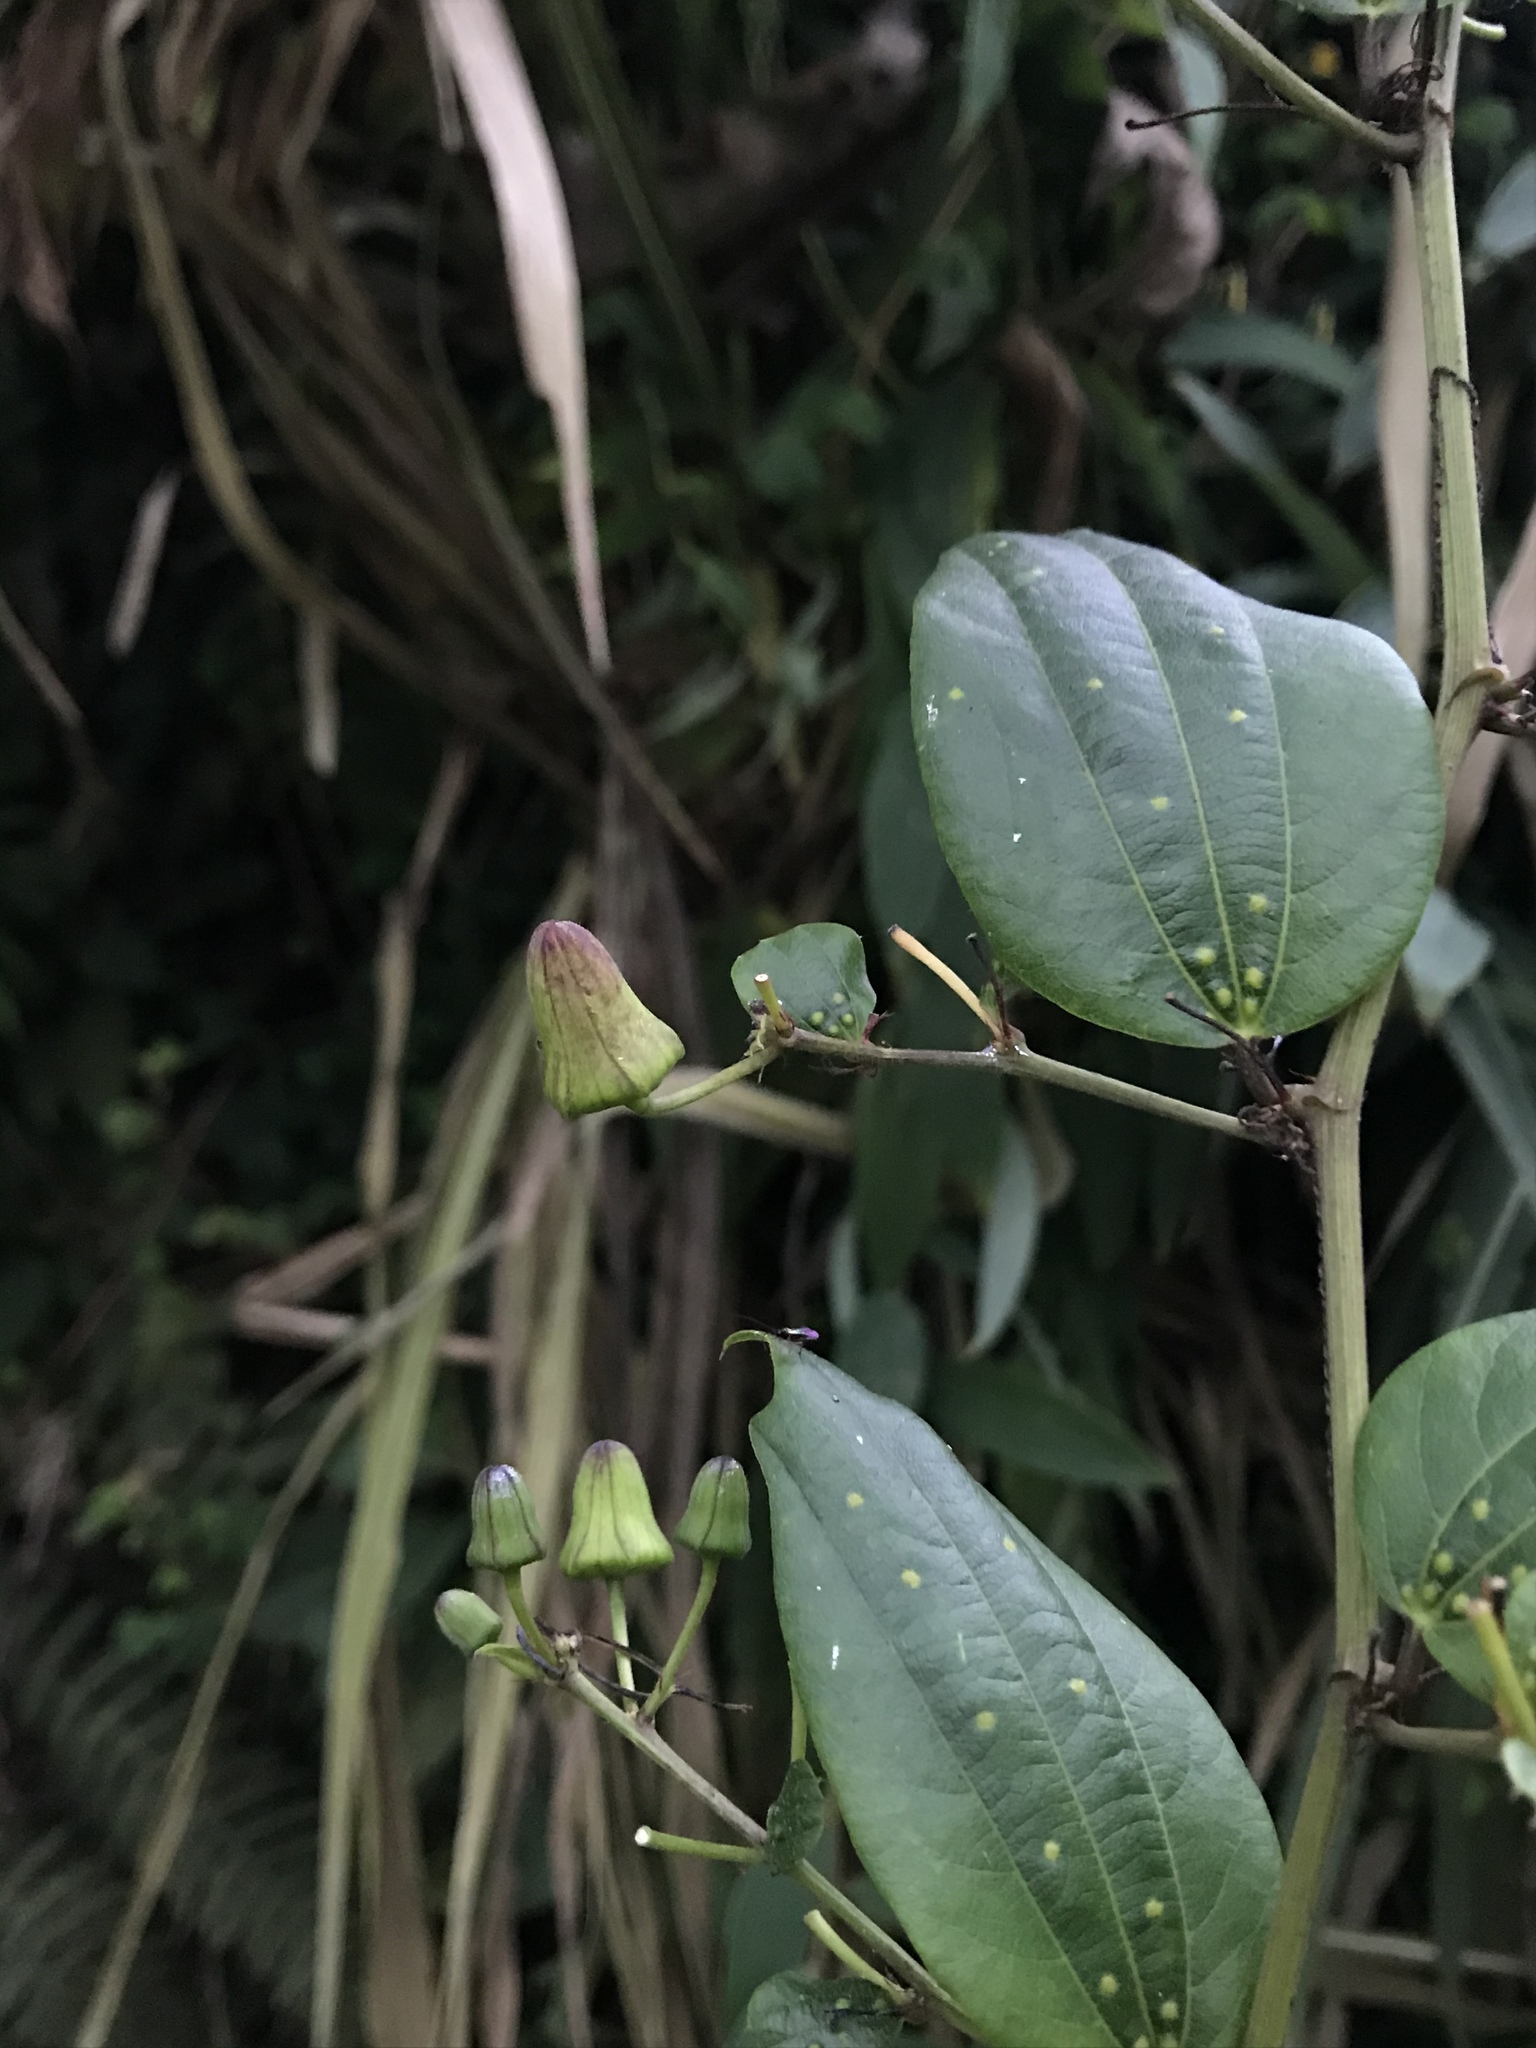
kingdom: Plantae
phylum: Tracheophyta
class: Magnoliopsida
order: Malpighiales
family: Passifloraceae
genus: Passiflora
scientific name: Passiflora cuspidifolia
